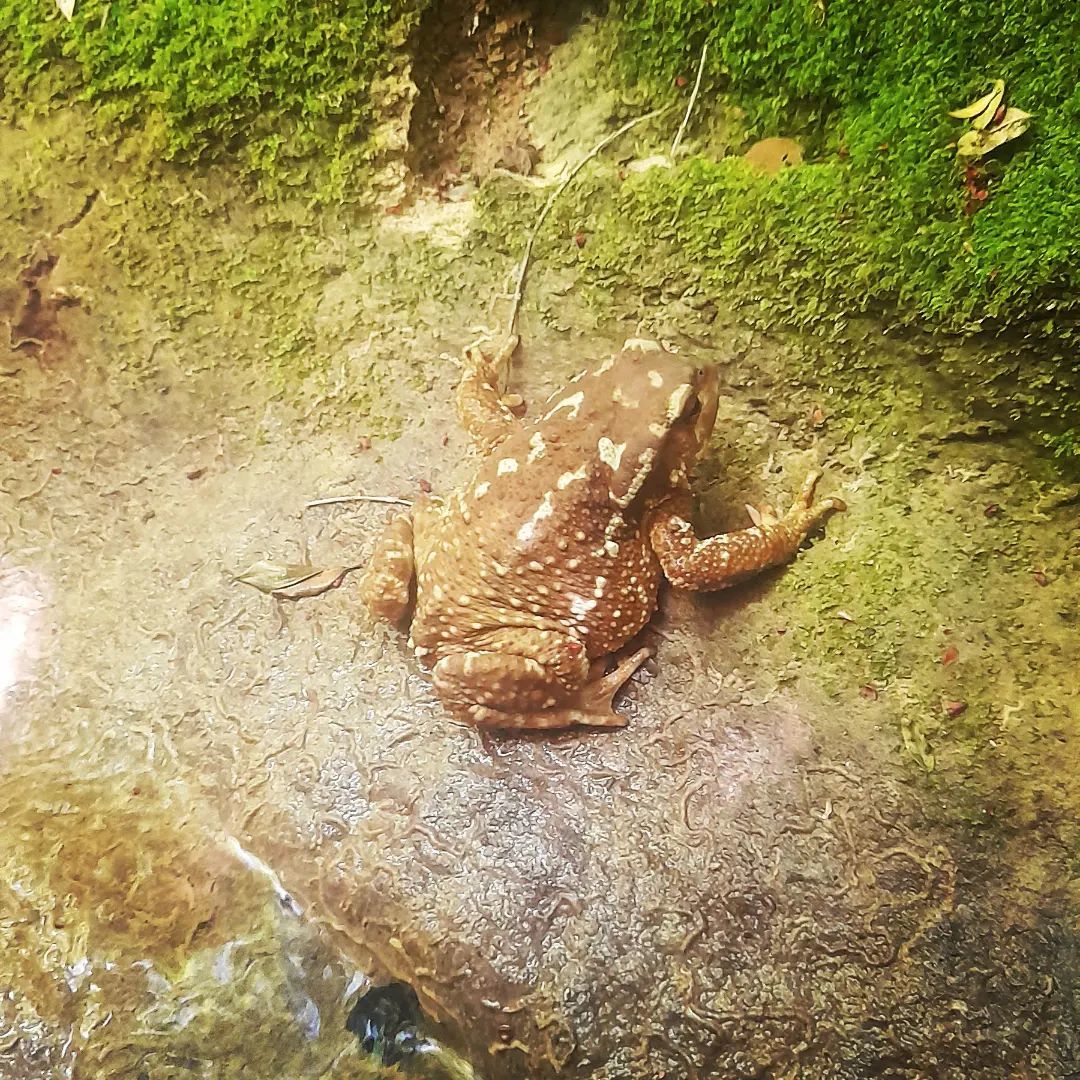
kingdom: Animalia
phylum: Chordata
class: Amphibia
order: Anura
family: Bufonidae
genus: Bufo
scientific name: Bufo spinosus
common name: Western common toad
